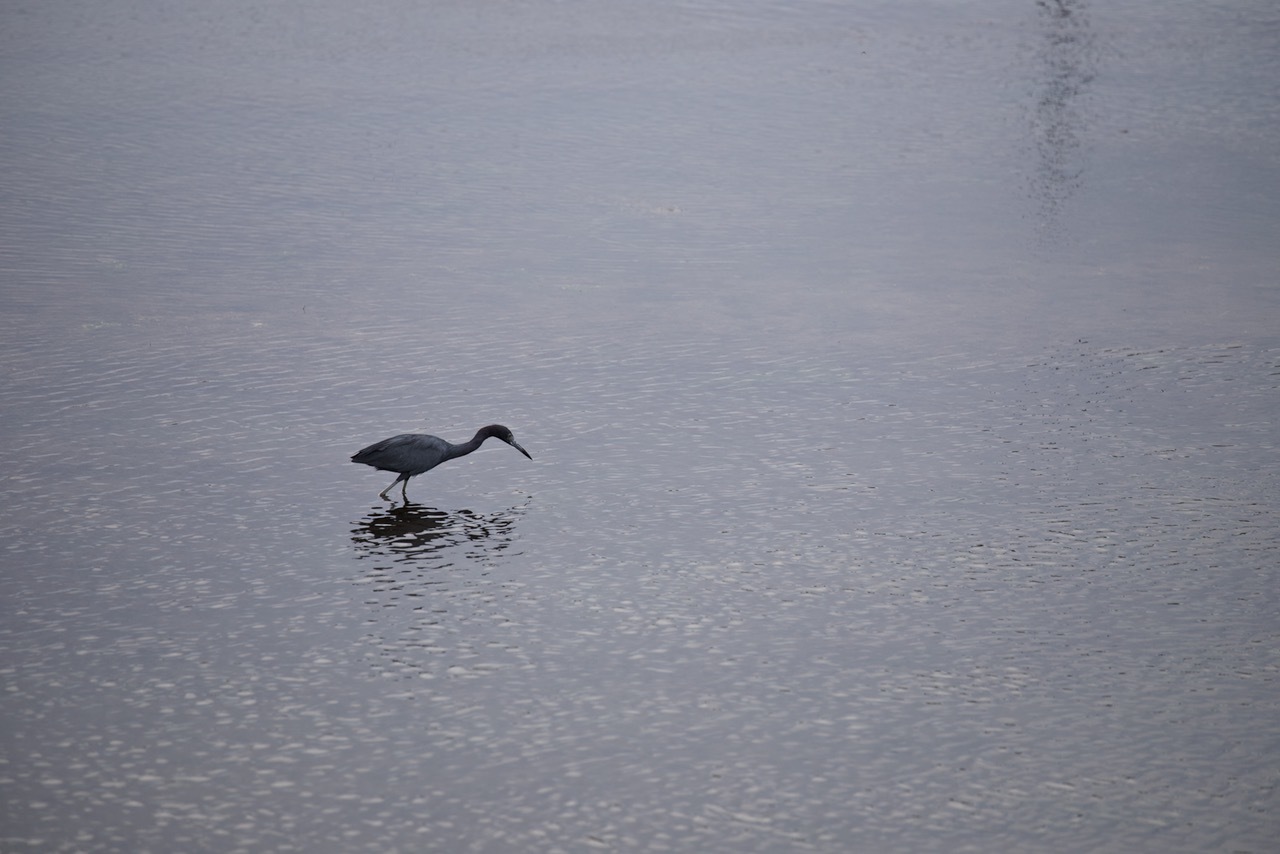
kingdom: Animalia
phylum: Chordata
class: Aves
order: Pelecaniformes
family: Ardeidae
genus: Egretta
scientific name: Egretta caerulea
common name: Little blue heron
